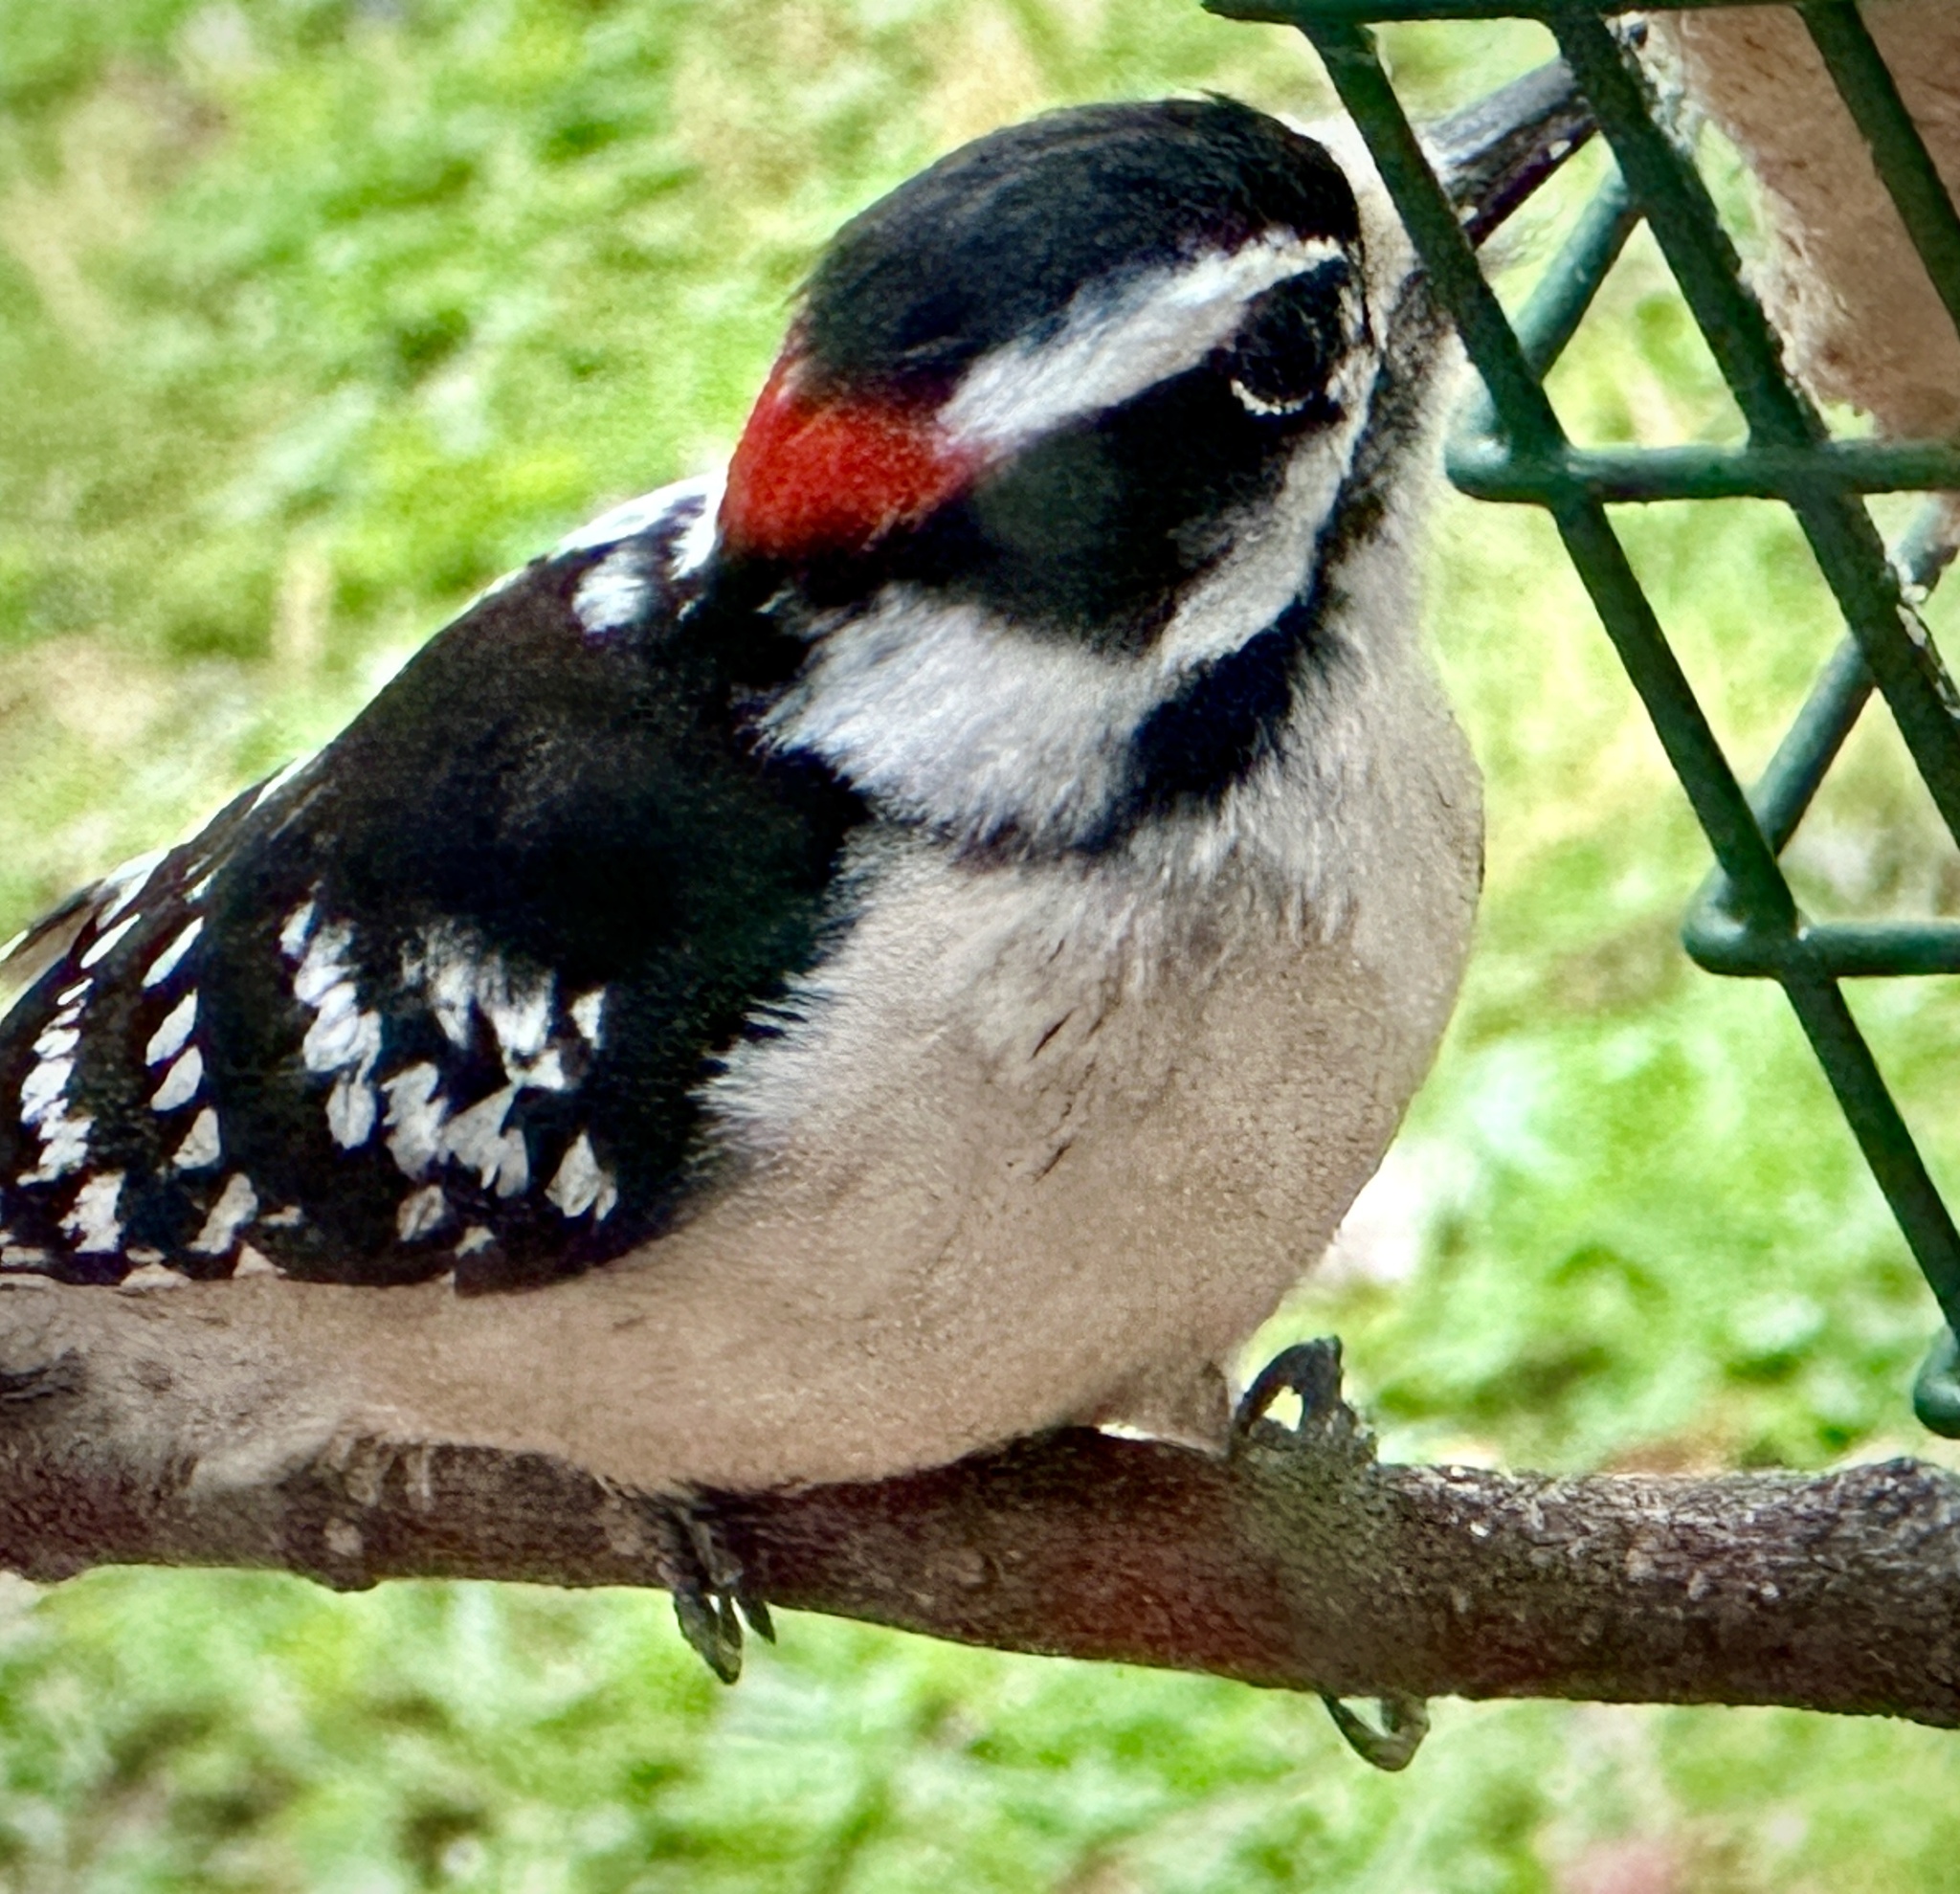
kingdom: Animalia
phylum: Chordata
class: Aves
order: Piciformes
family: Picidae
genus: Dryobates
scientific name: Dryobates pubescens
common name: Downy woodpecker
